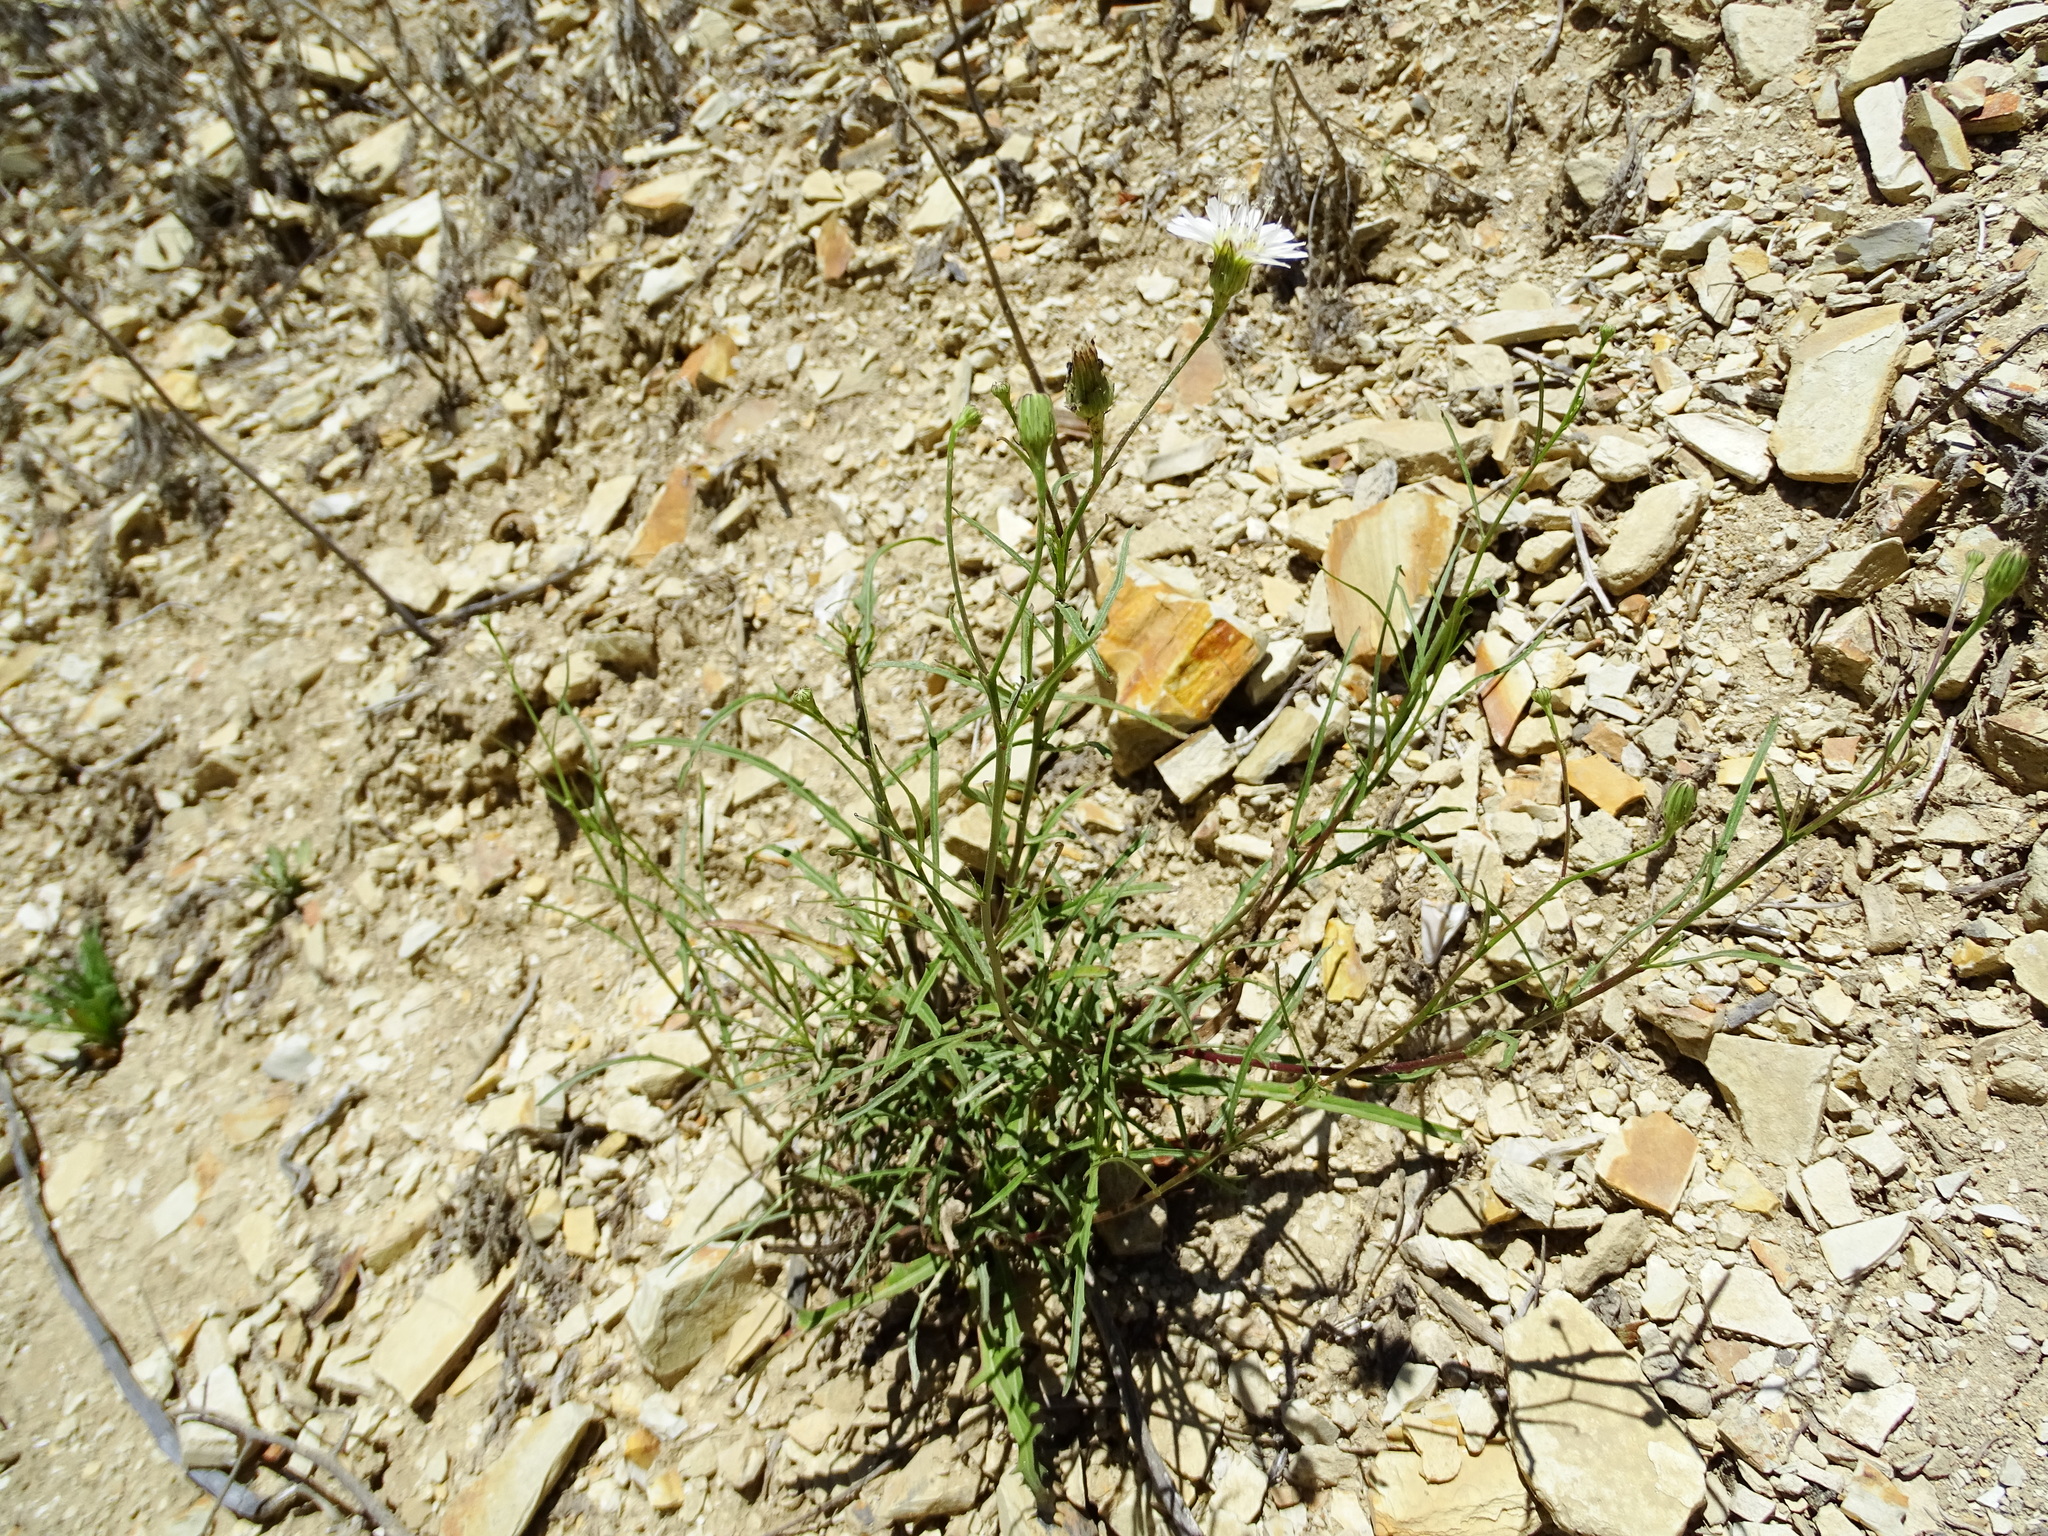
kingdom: Plantae
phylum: Tracheophyta
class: Magnoliopsida
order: Asterales
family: Asteraceae
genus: Malacothrix
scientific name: Malacothrix saxatilis
